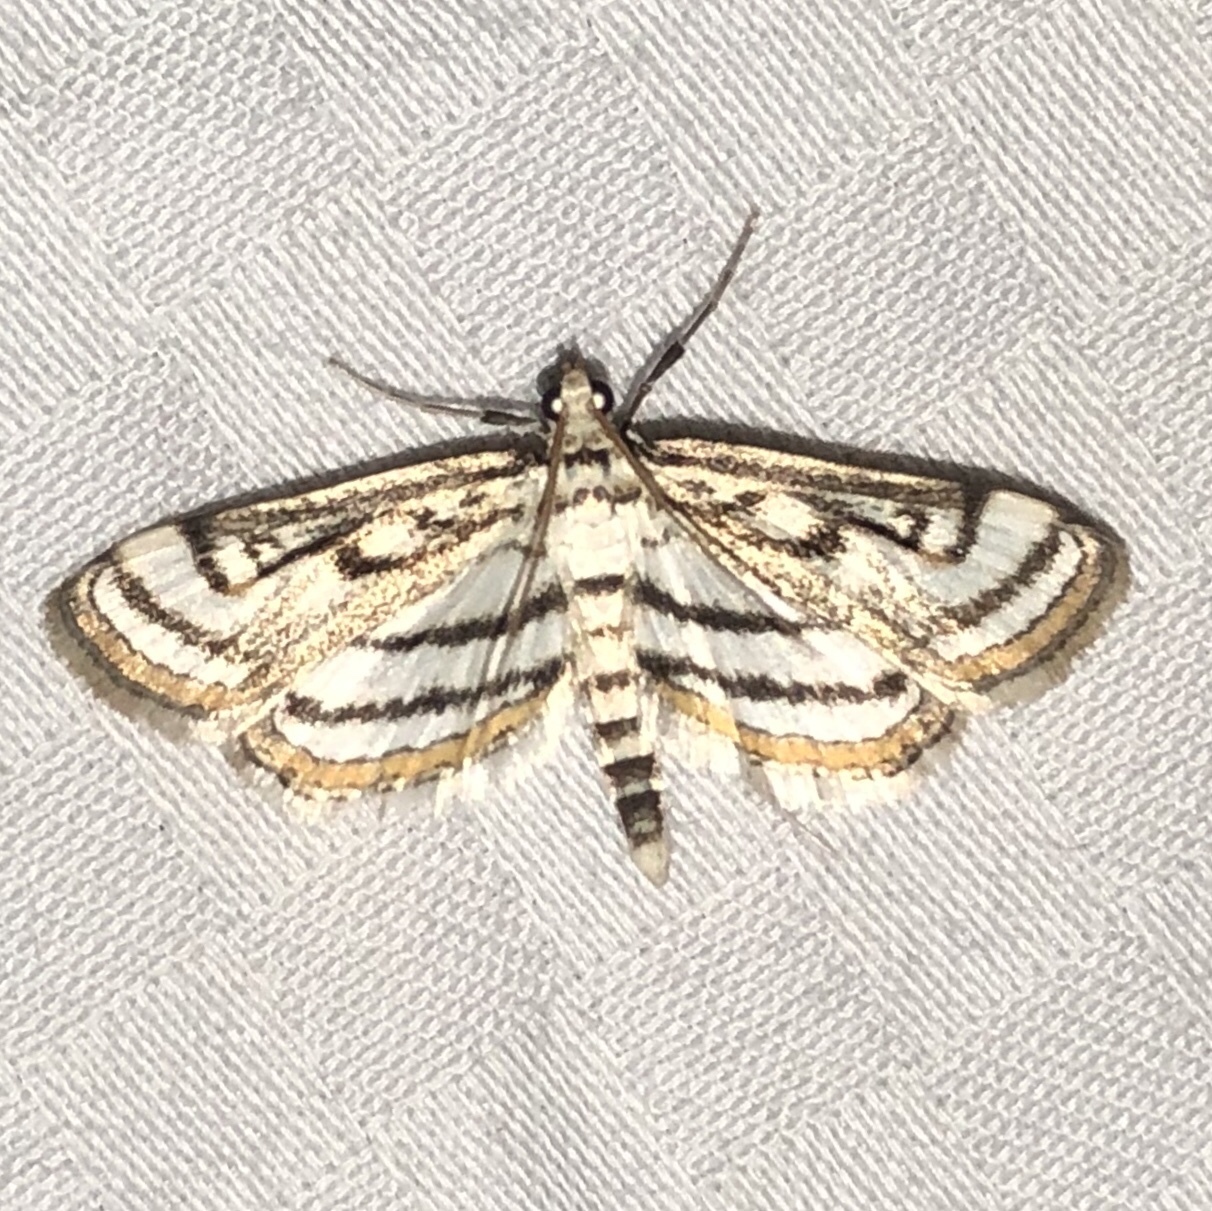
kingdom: Animalia
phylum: Arthropoda
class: Insecta
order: Lepidoptera
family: Crambidae
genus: Parapoynx
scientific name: Parapoynx badiusalis
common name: Chestnut-marked pondweed moth
